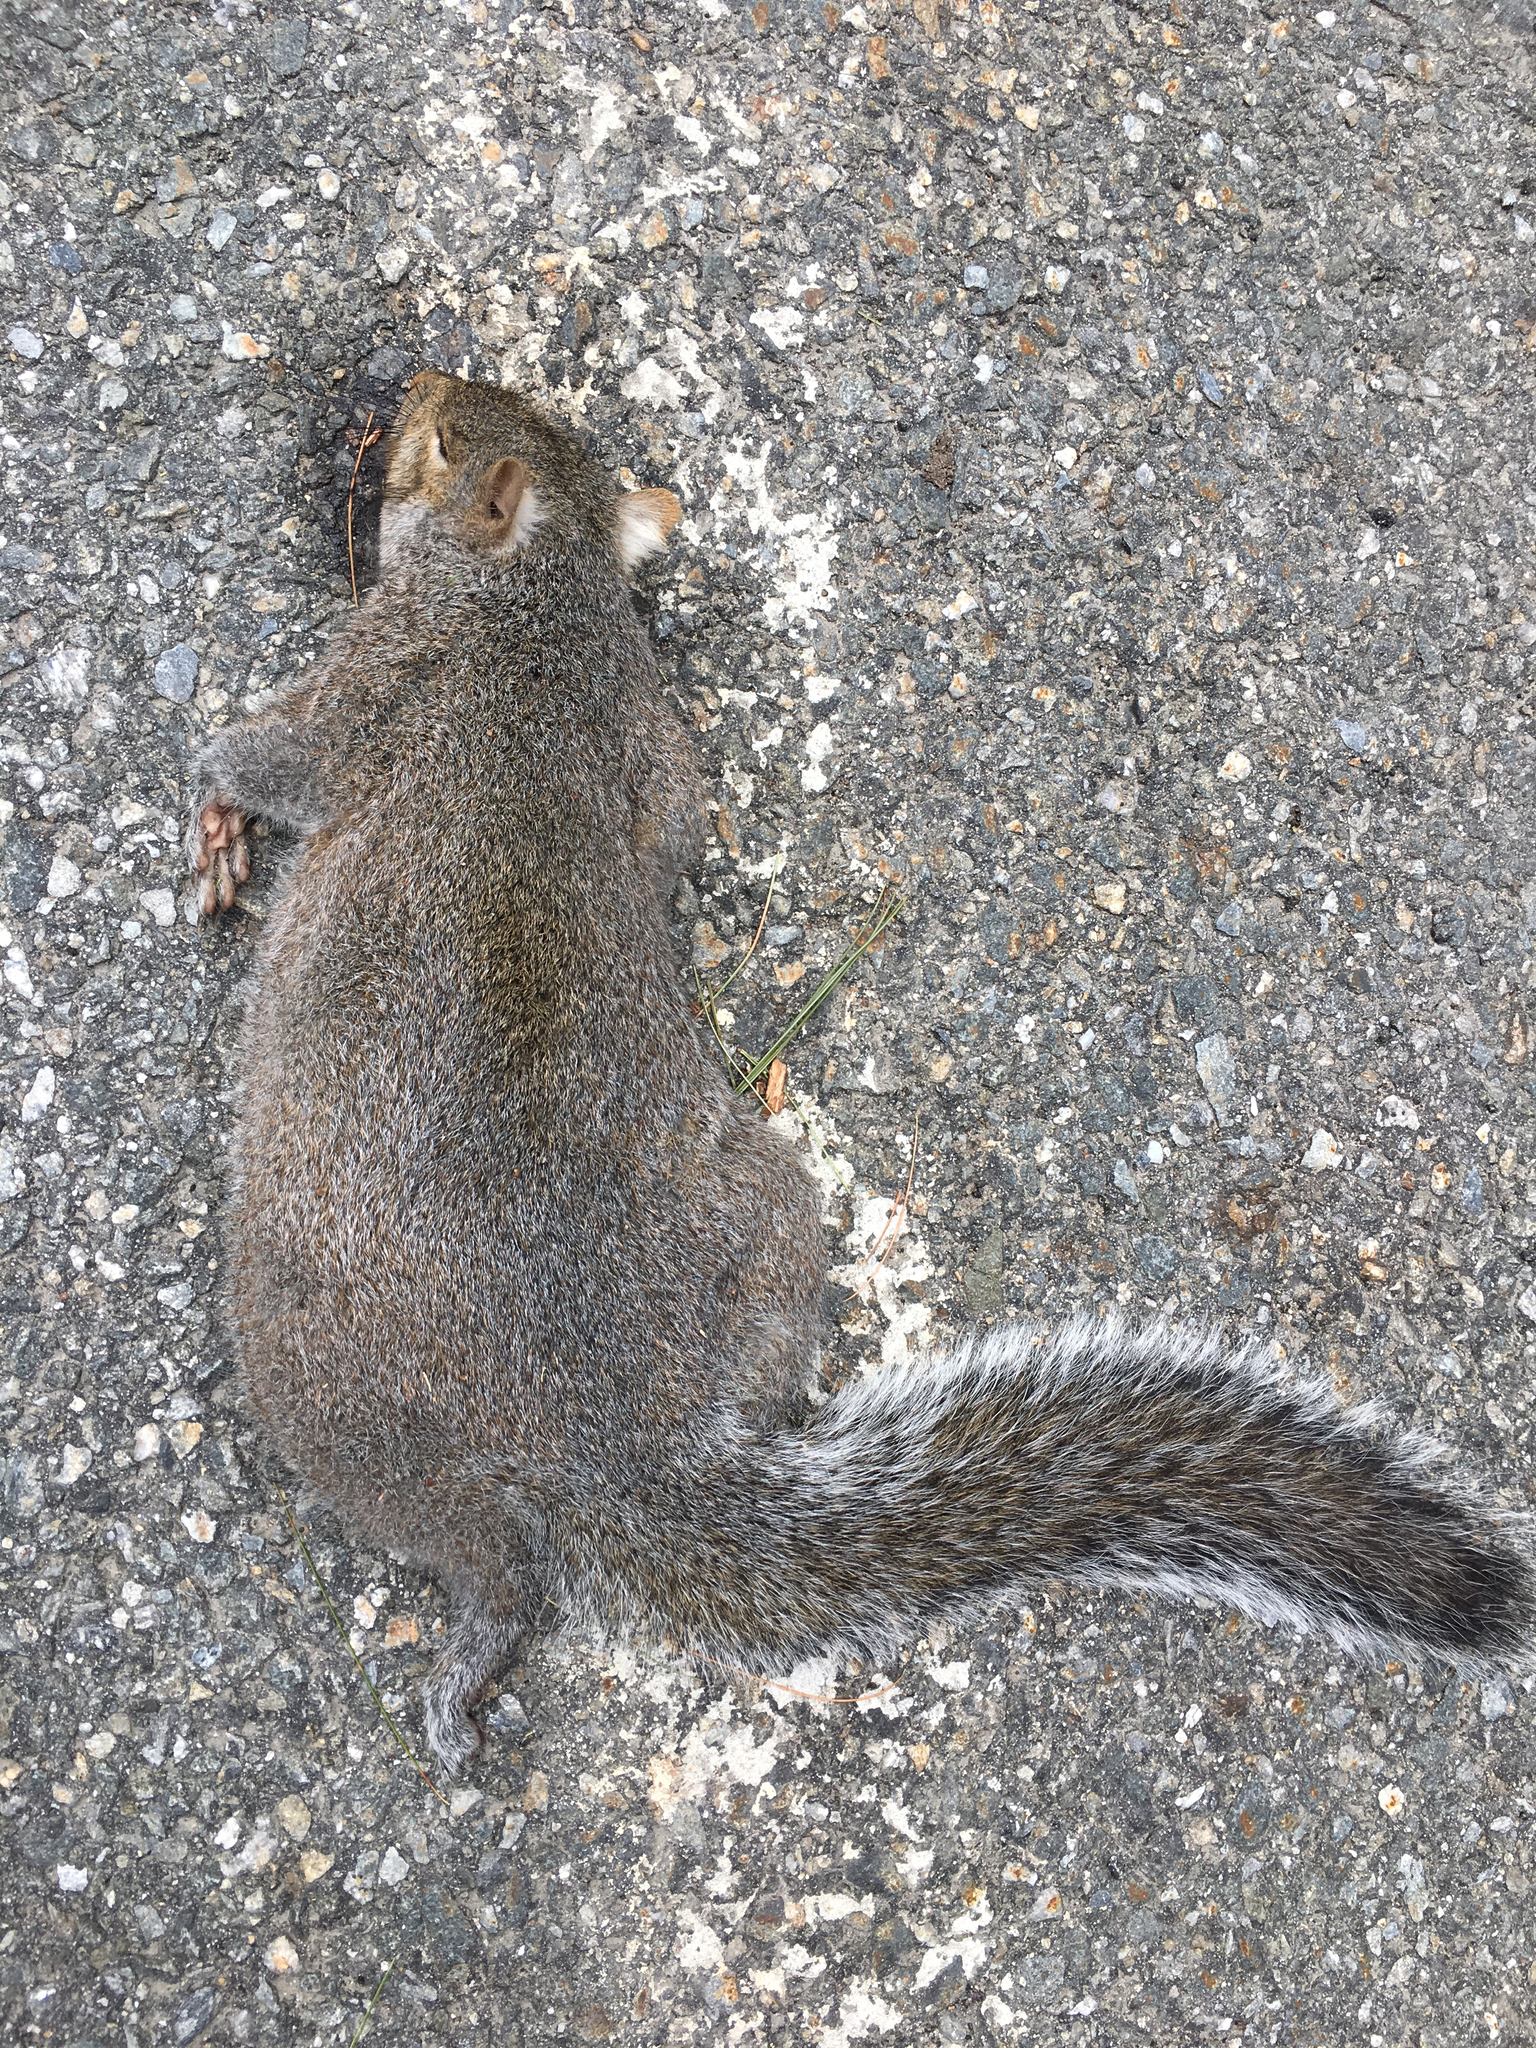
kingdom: Animalia
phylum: Chordata
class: Mammalia
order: Rodentia
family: Sciuridae
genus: Sciurus
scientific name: Sciurus carolinensis
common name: Eastern gray squirrel
